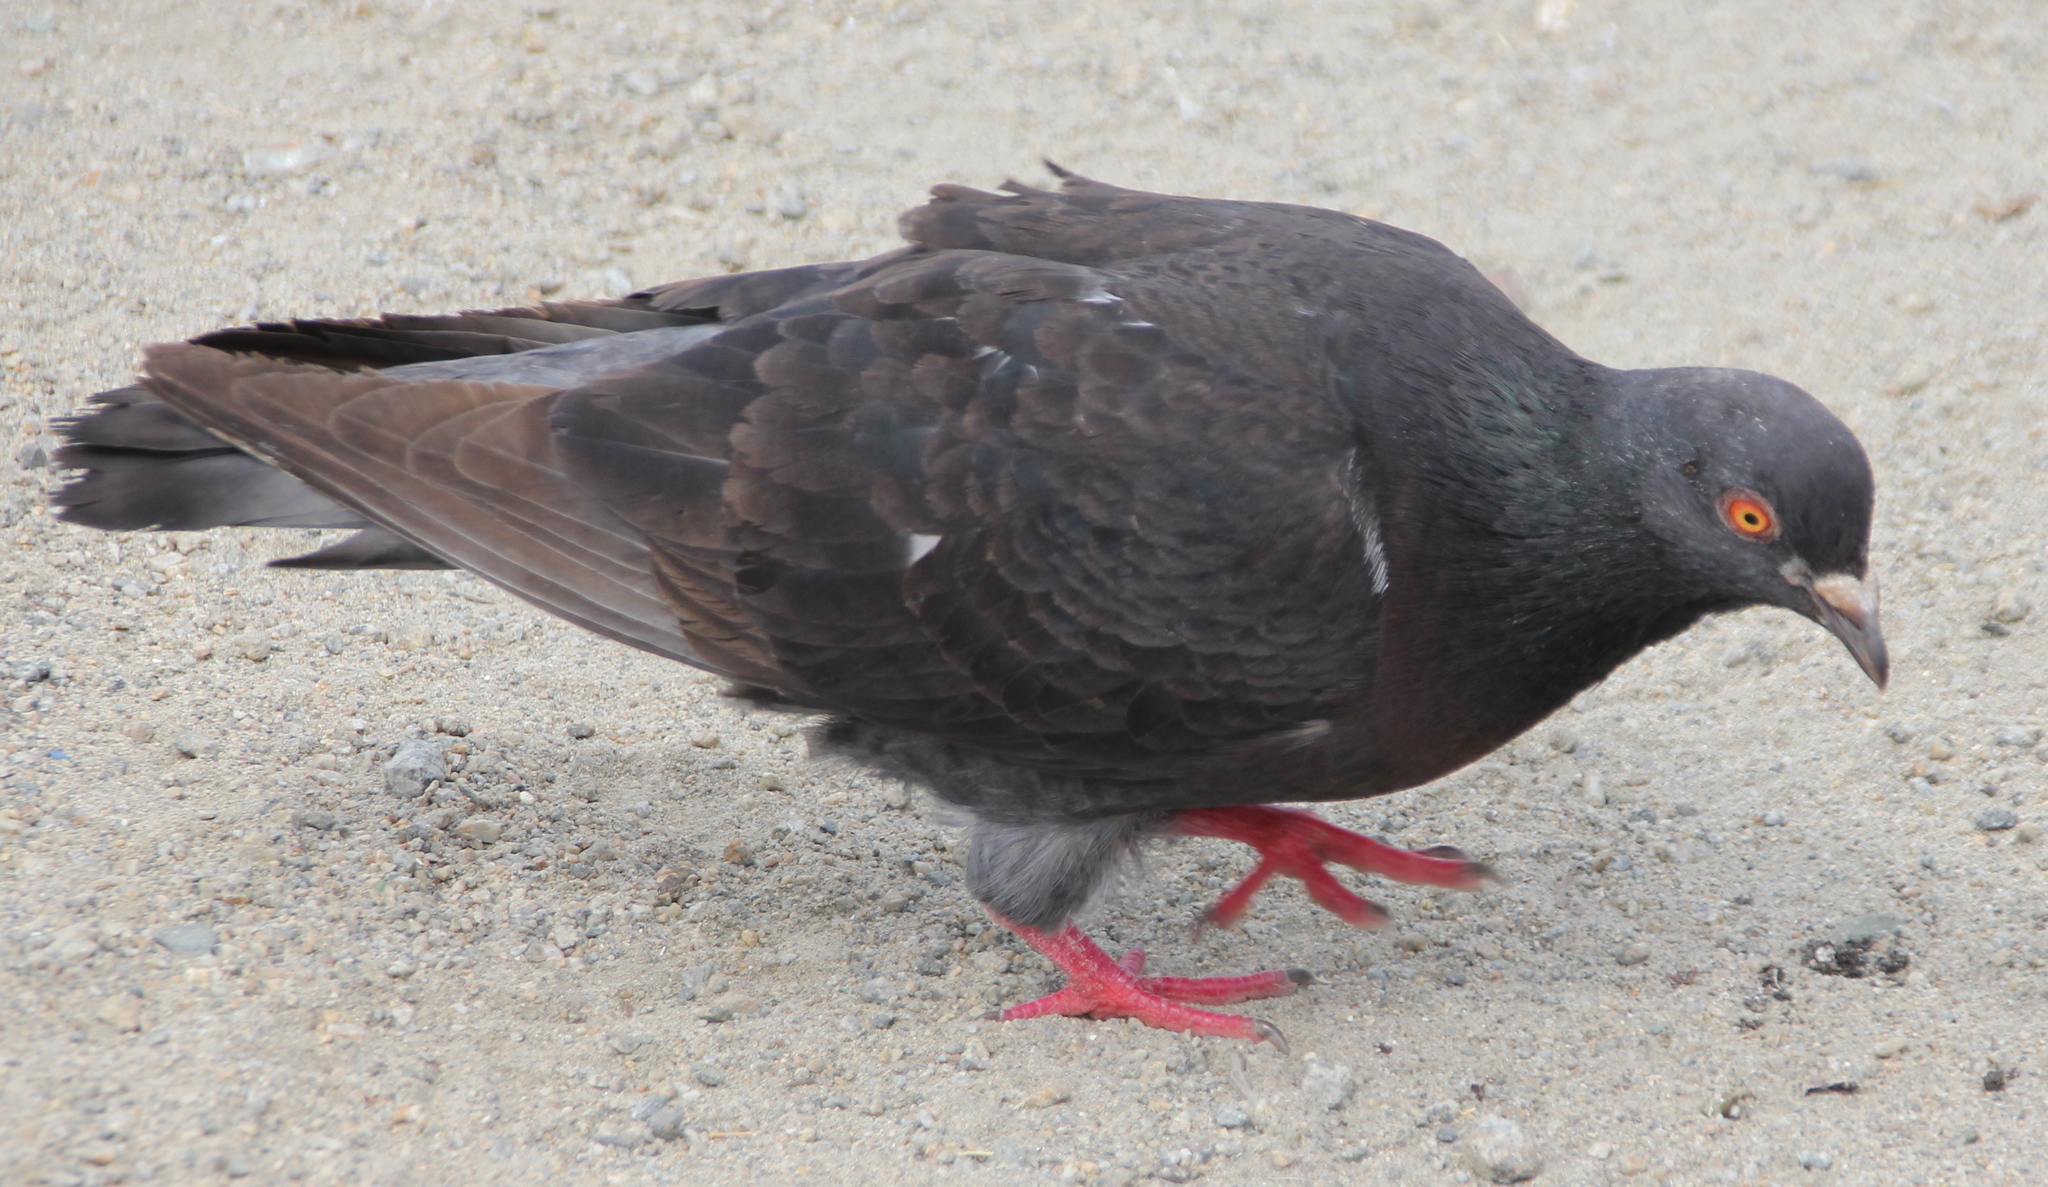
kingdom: Animalia
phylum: Chordata
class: Aves
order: Columbiformes
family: Columbidae
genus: Columba
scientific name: Columba livia
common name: Rock pigeon
